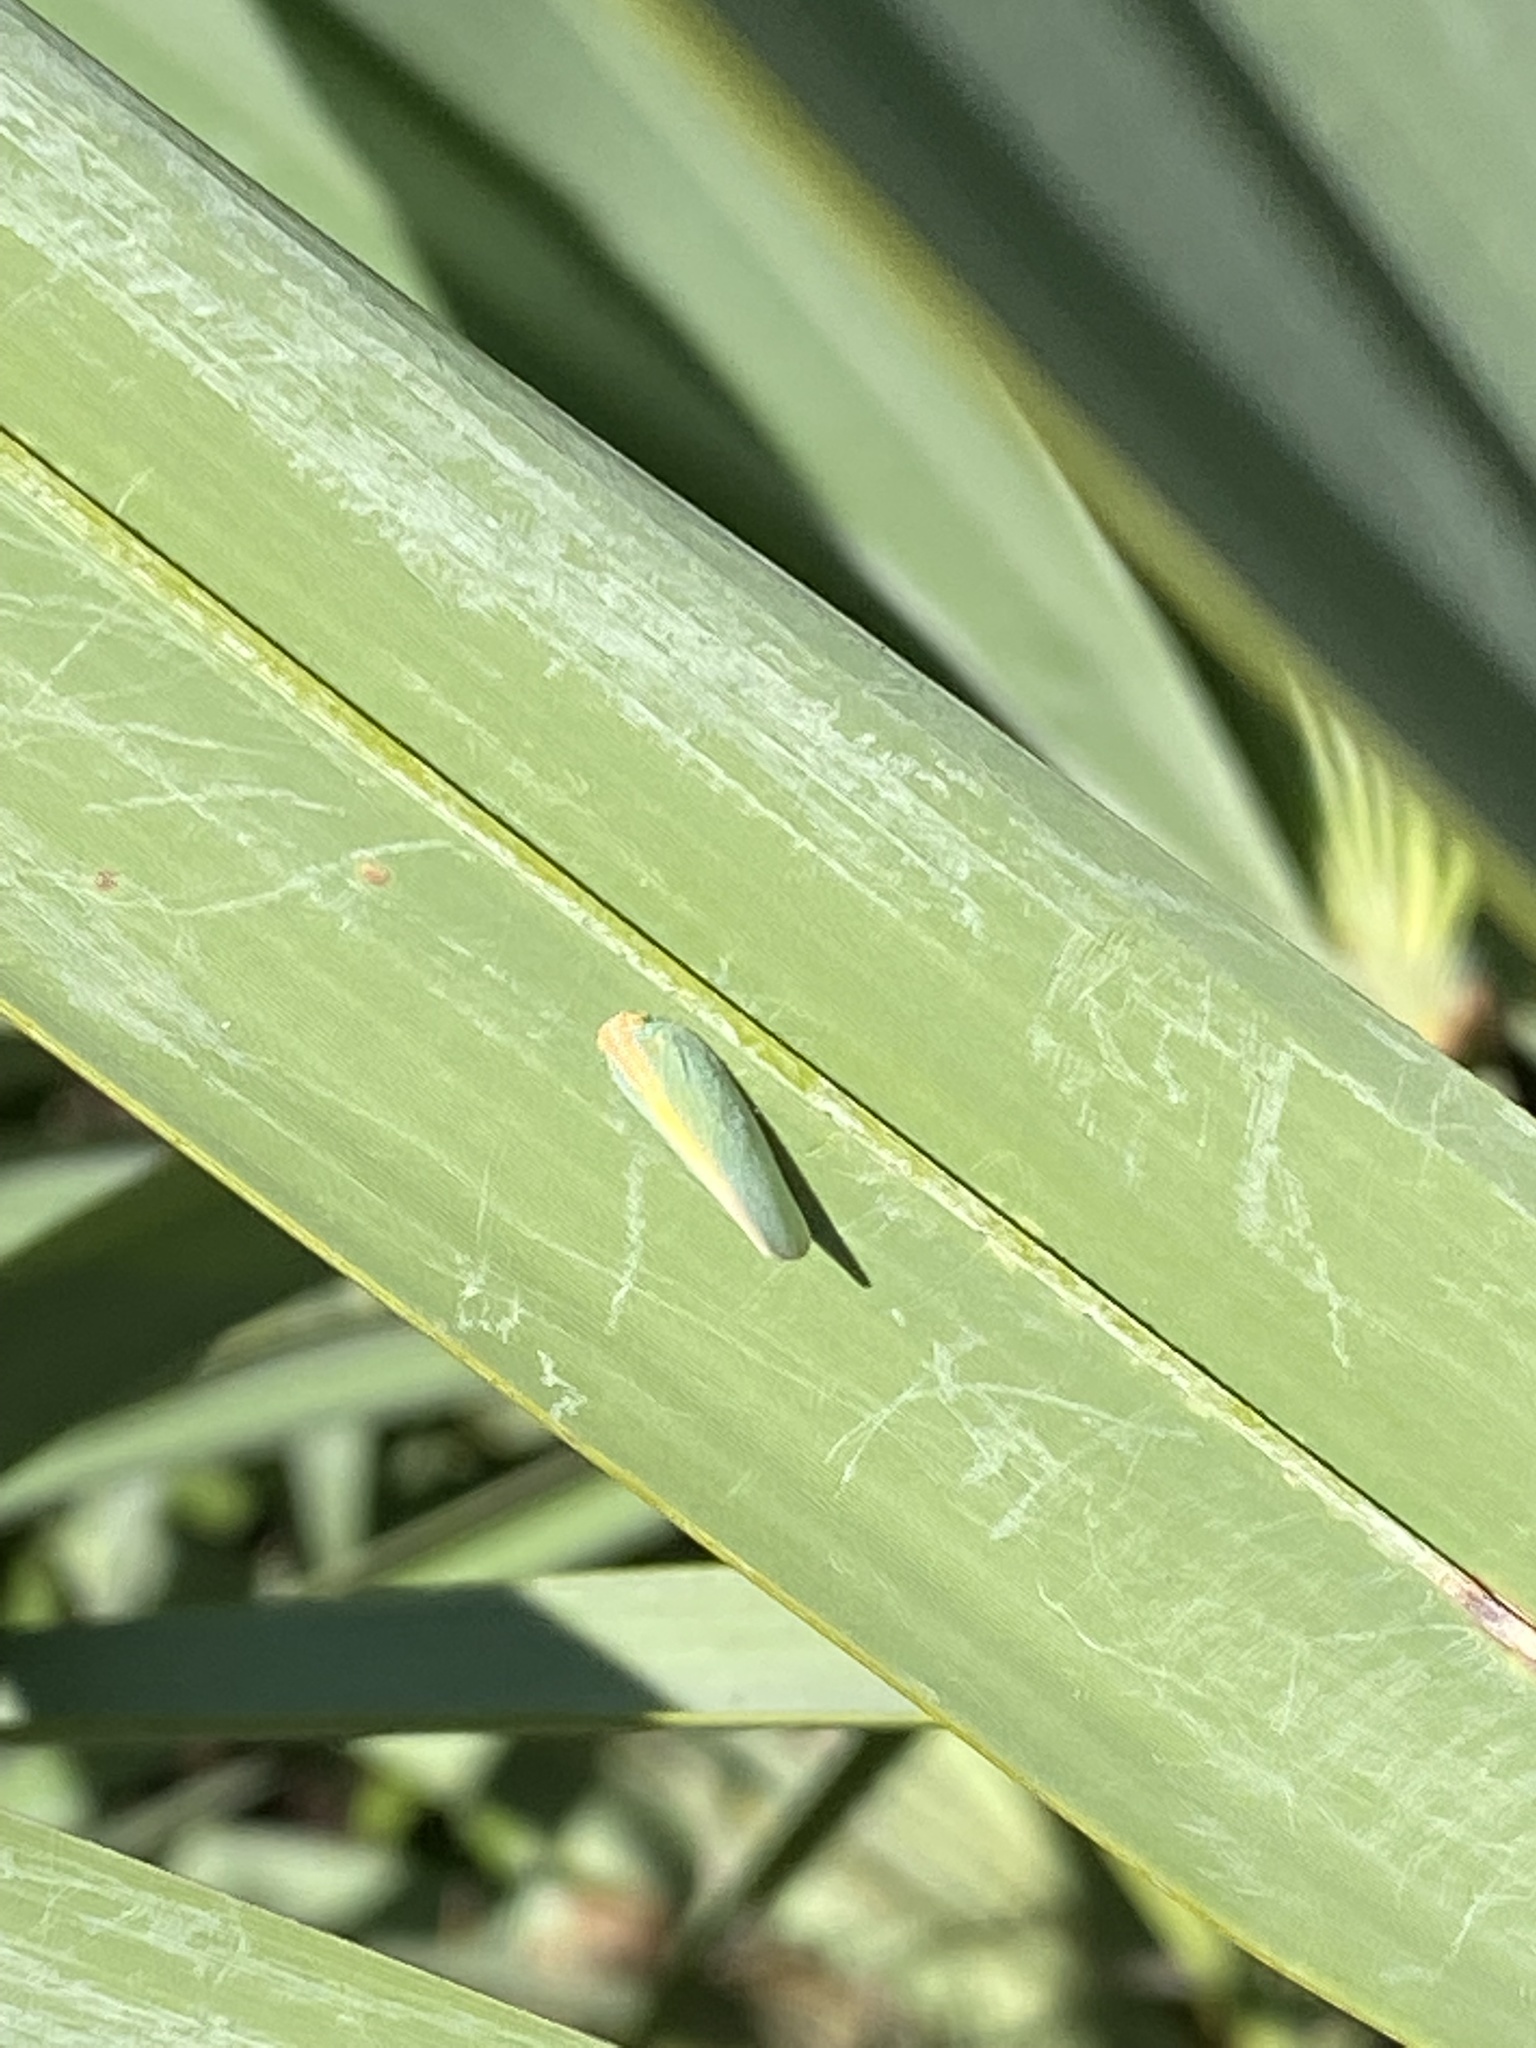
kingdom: Animalia
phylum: Arthropoda
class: Insecta
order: Hemiptera
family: Flatidae
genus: Ormenaria
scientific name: Ormenaria rufifascia
